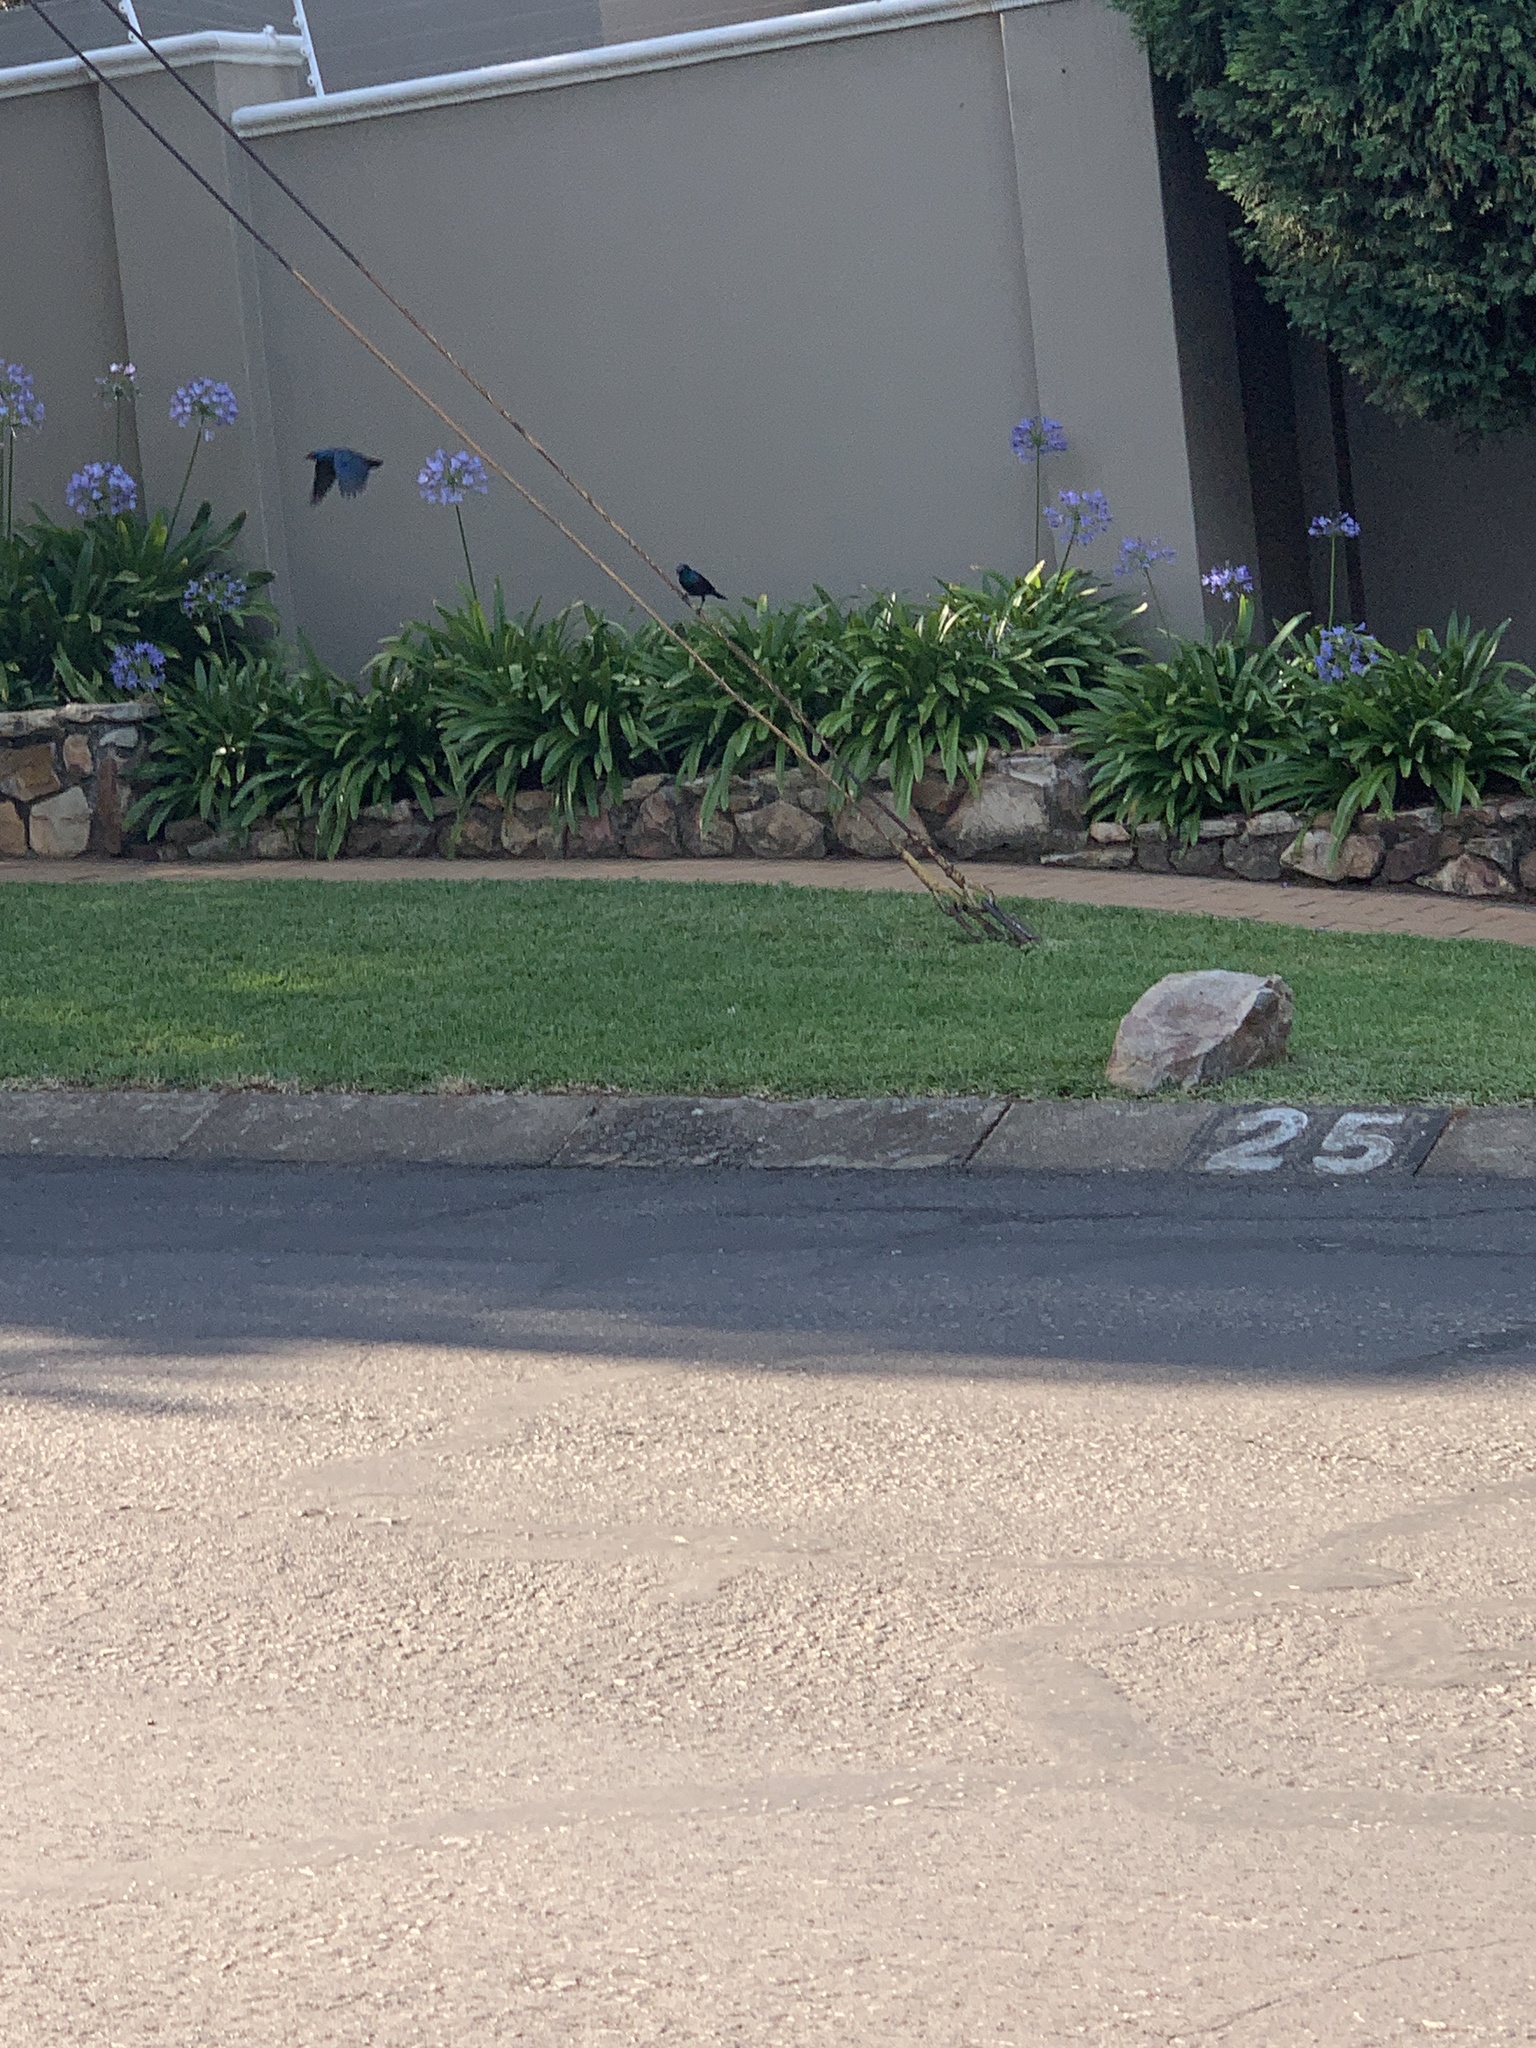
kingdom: Animalia
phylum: Chordata
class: Aves
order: Passeriformes
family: Sturnidae
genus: Lamprotornis
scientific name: Lamprotornis nitens
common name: Cape starling
